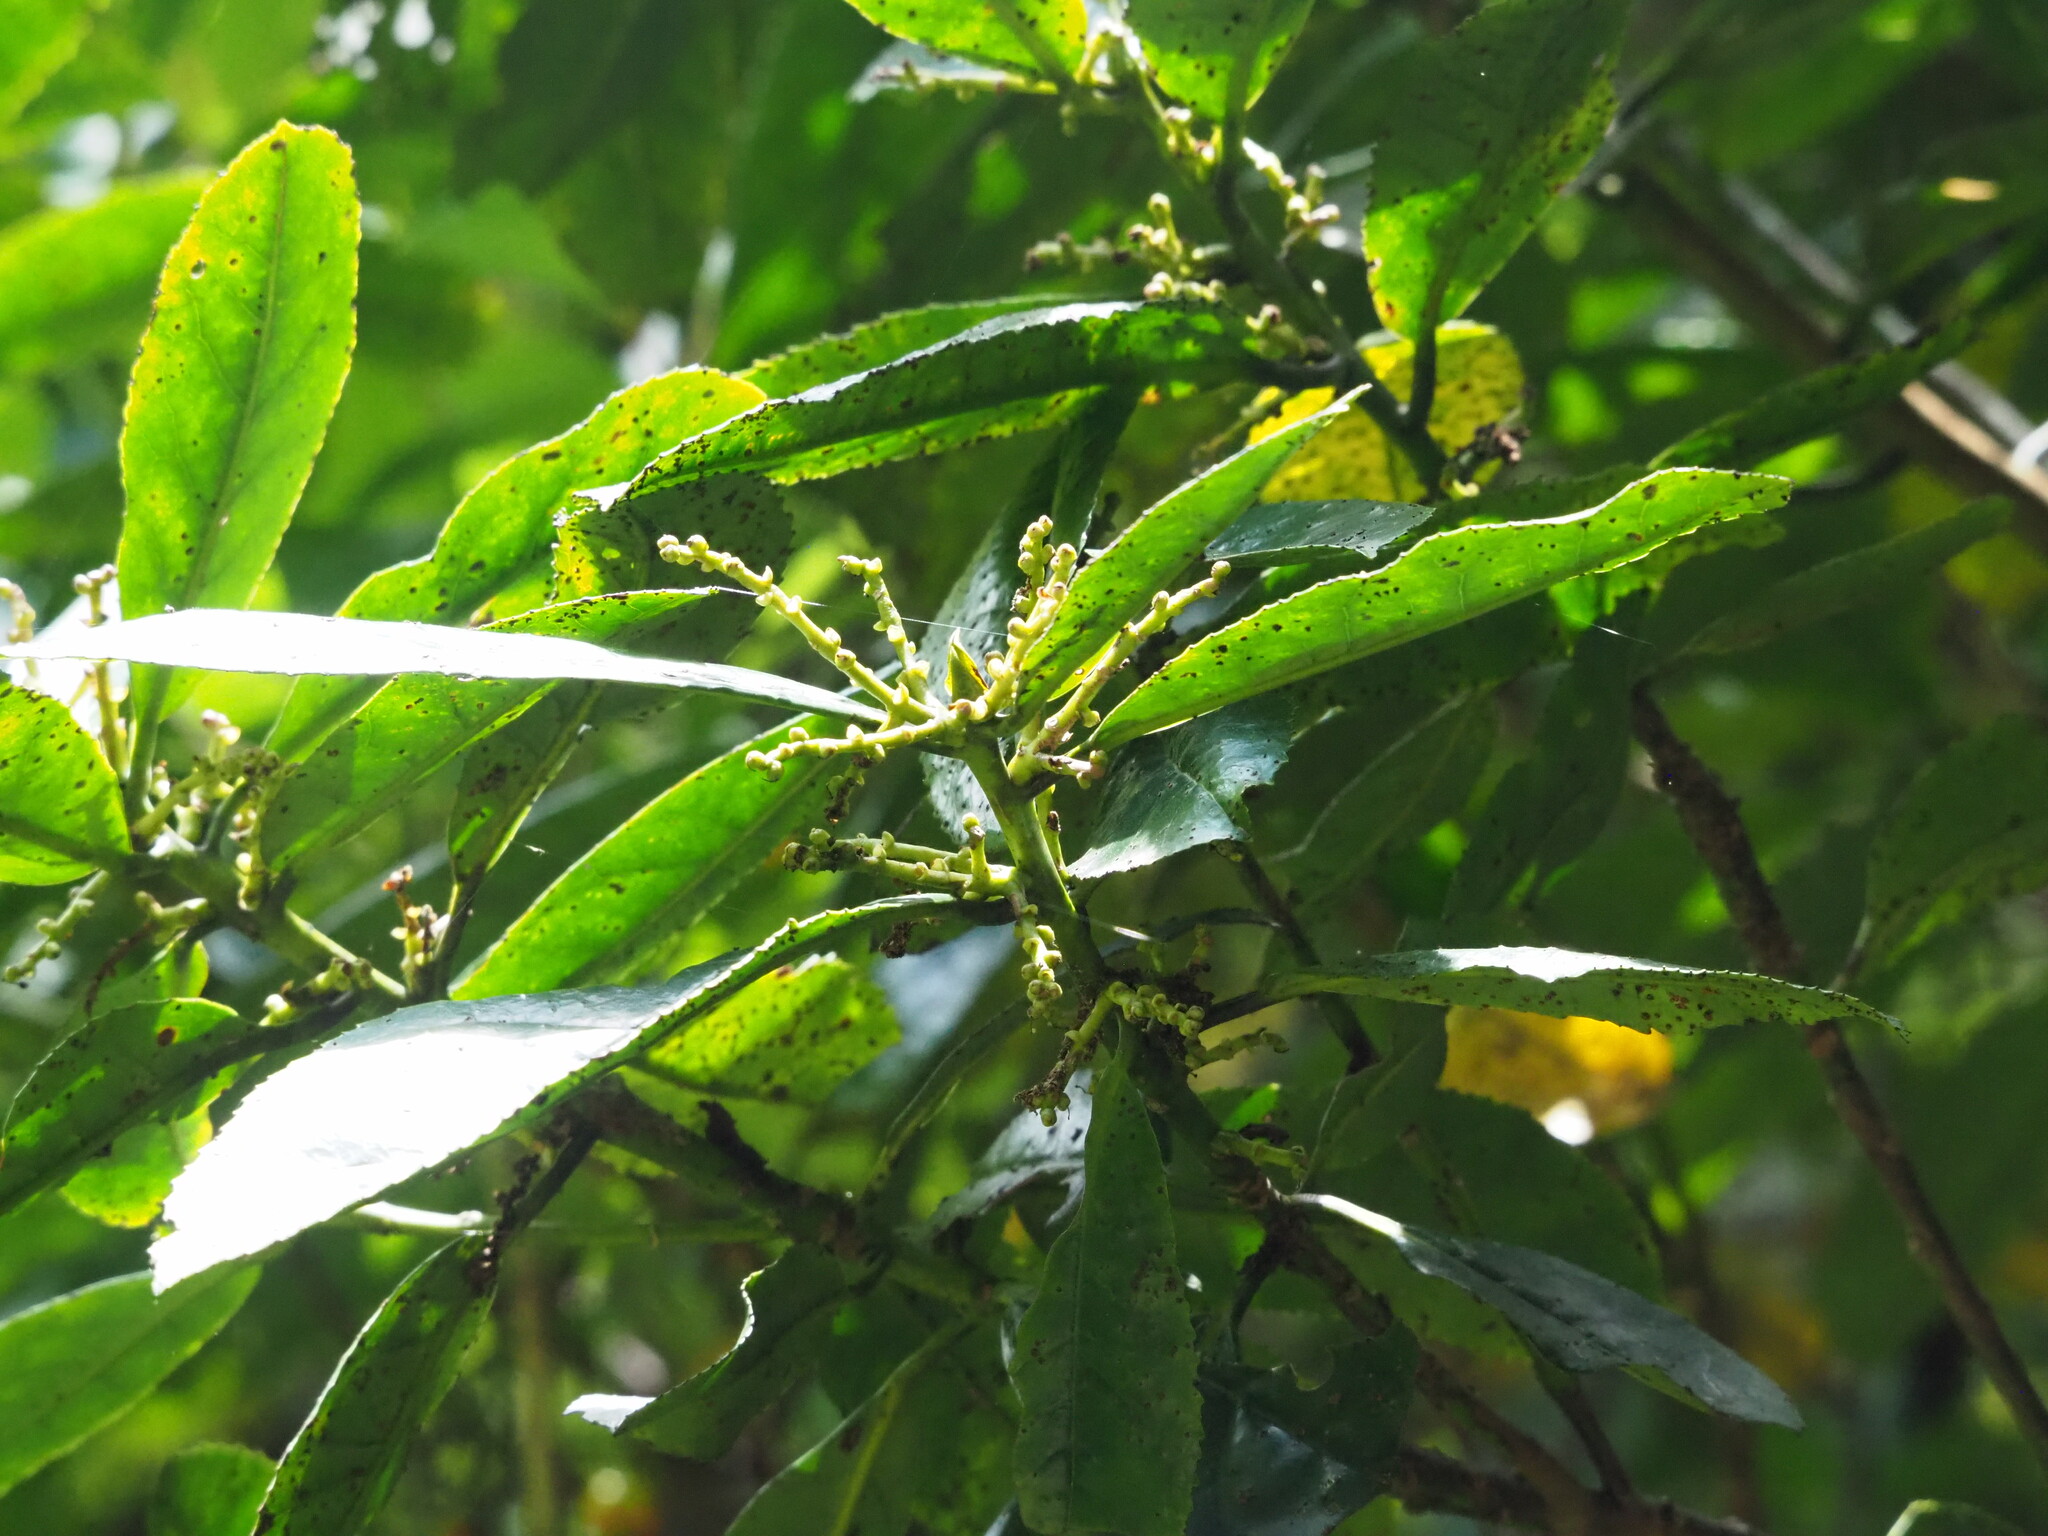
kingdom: Plantae
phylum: Tracheophyta
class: Magnoliopsida
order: Ericales
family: Symplocaceae
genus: Symplocos
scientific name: Symplocos acuminata
